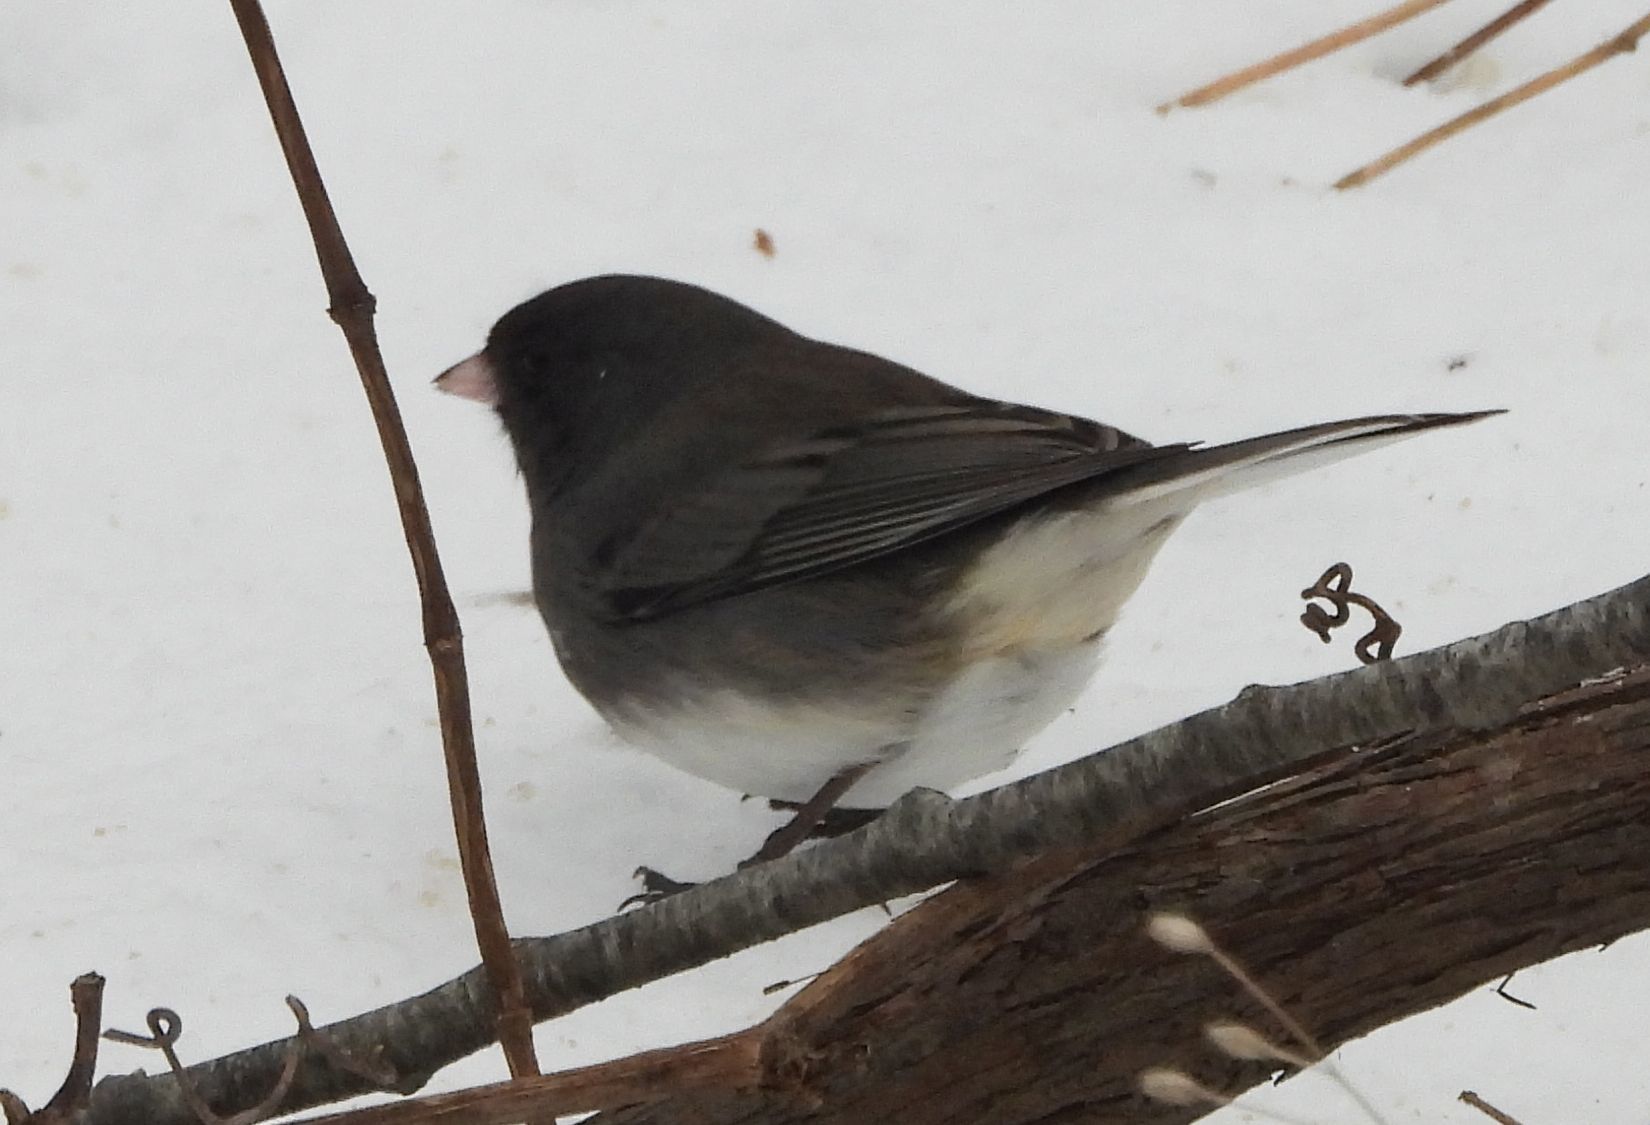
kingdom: Animalia
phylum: Chordata
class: Aves
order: Passeriformes
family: Passerellidae
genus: Junco
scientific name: Junco hyemalis
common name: Dark-eyed junco
